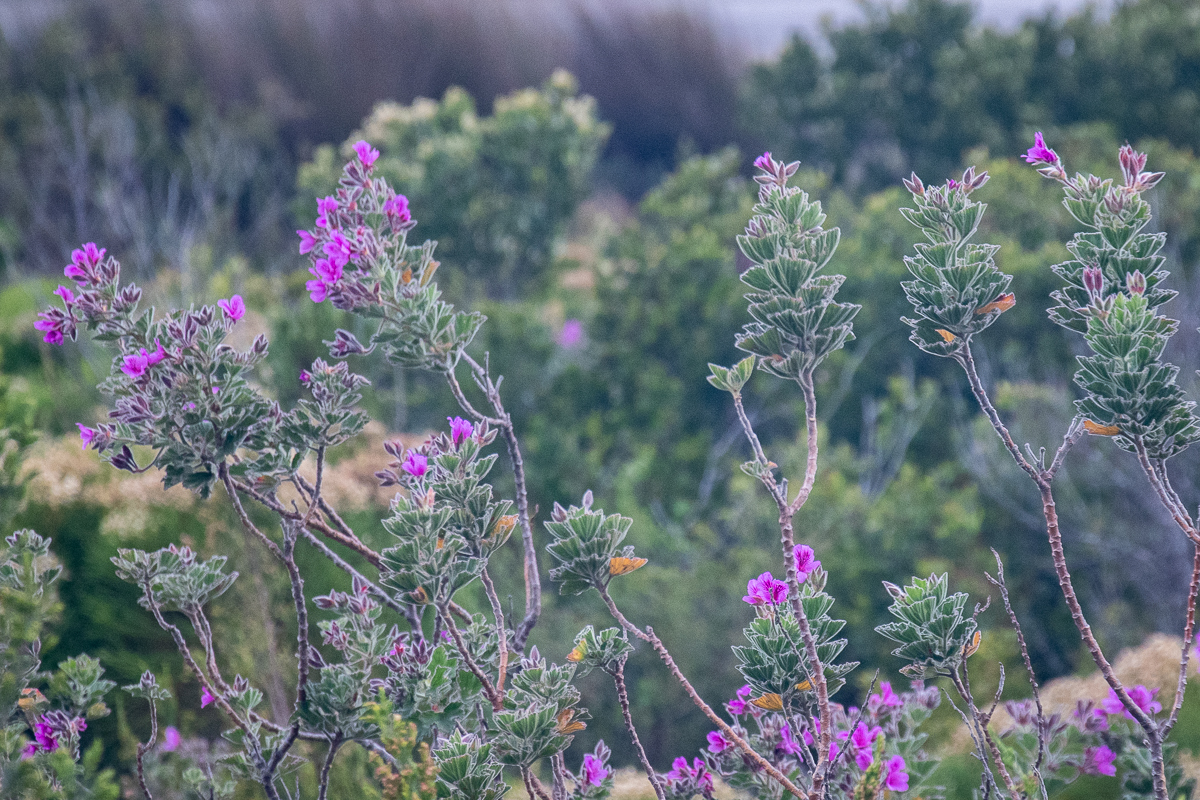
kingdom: Plantae
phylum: Tracheophyta
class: Magnoliopsida
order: Geraniales
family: Geraniaceae
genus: Pelargonium
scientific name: Pelargonium cucullatum
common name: Tree pelargonium
